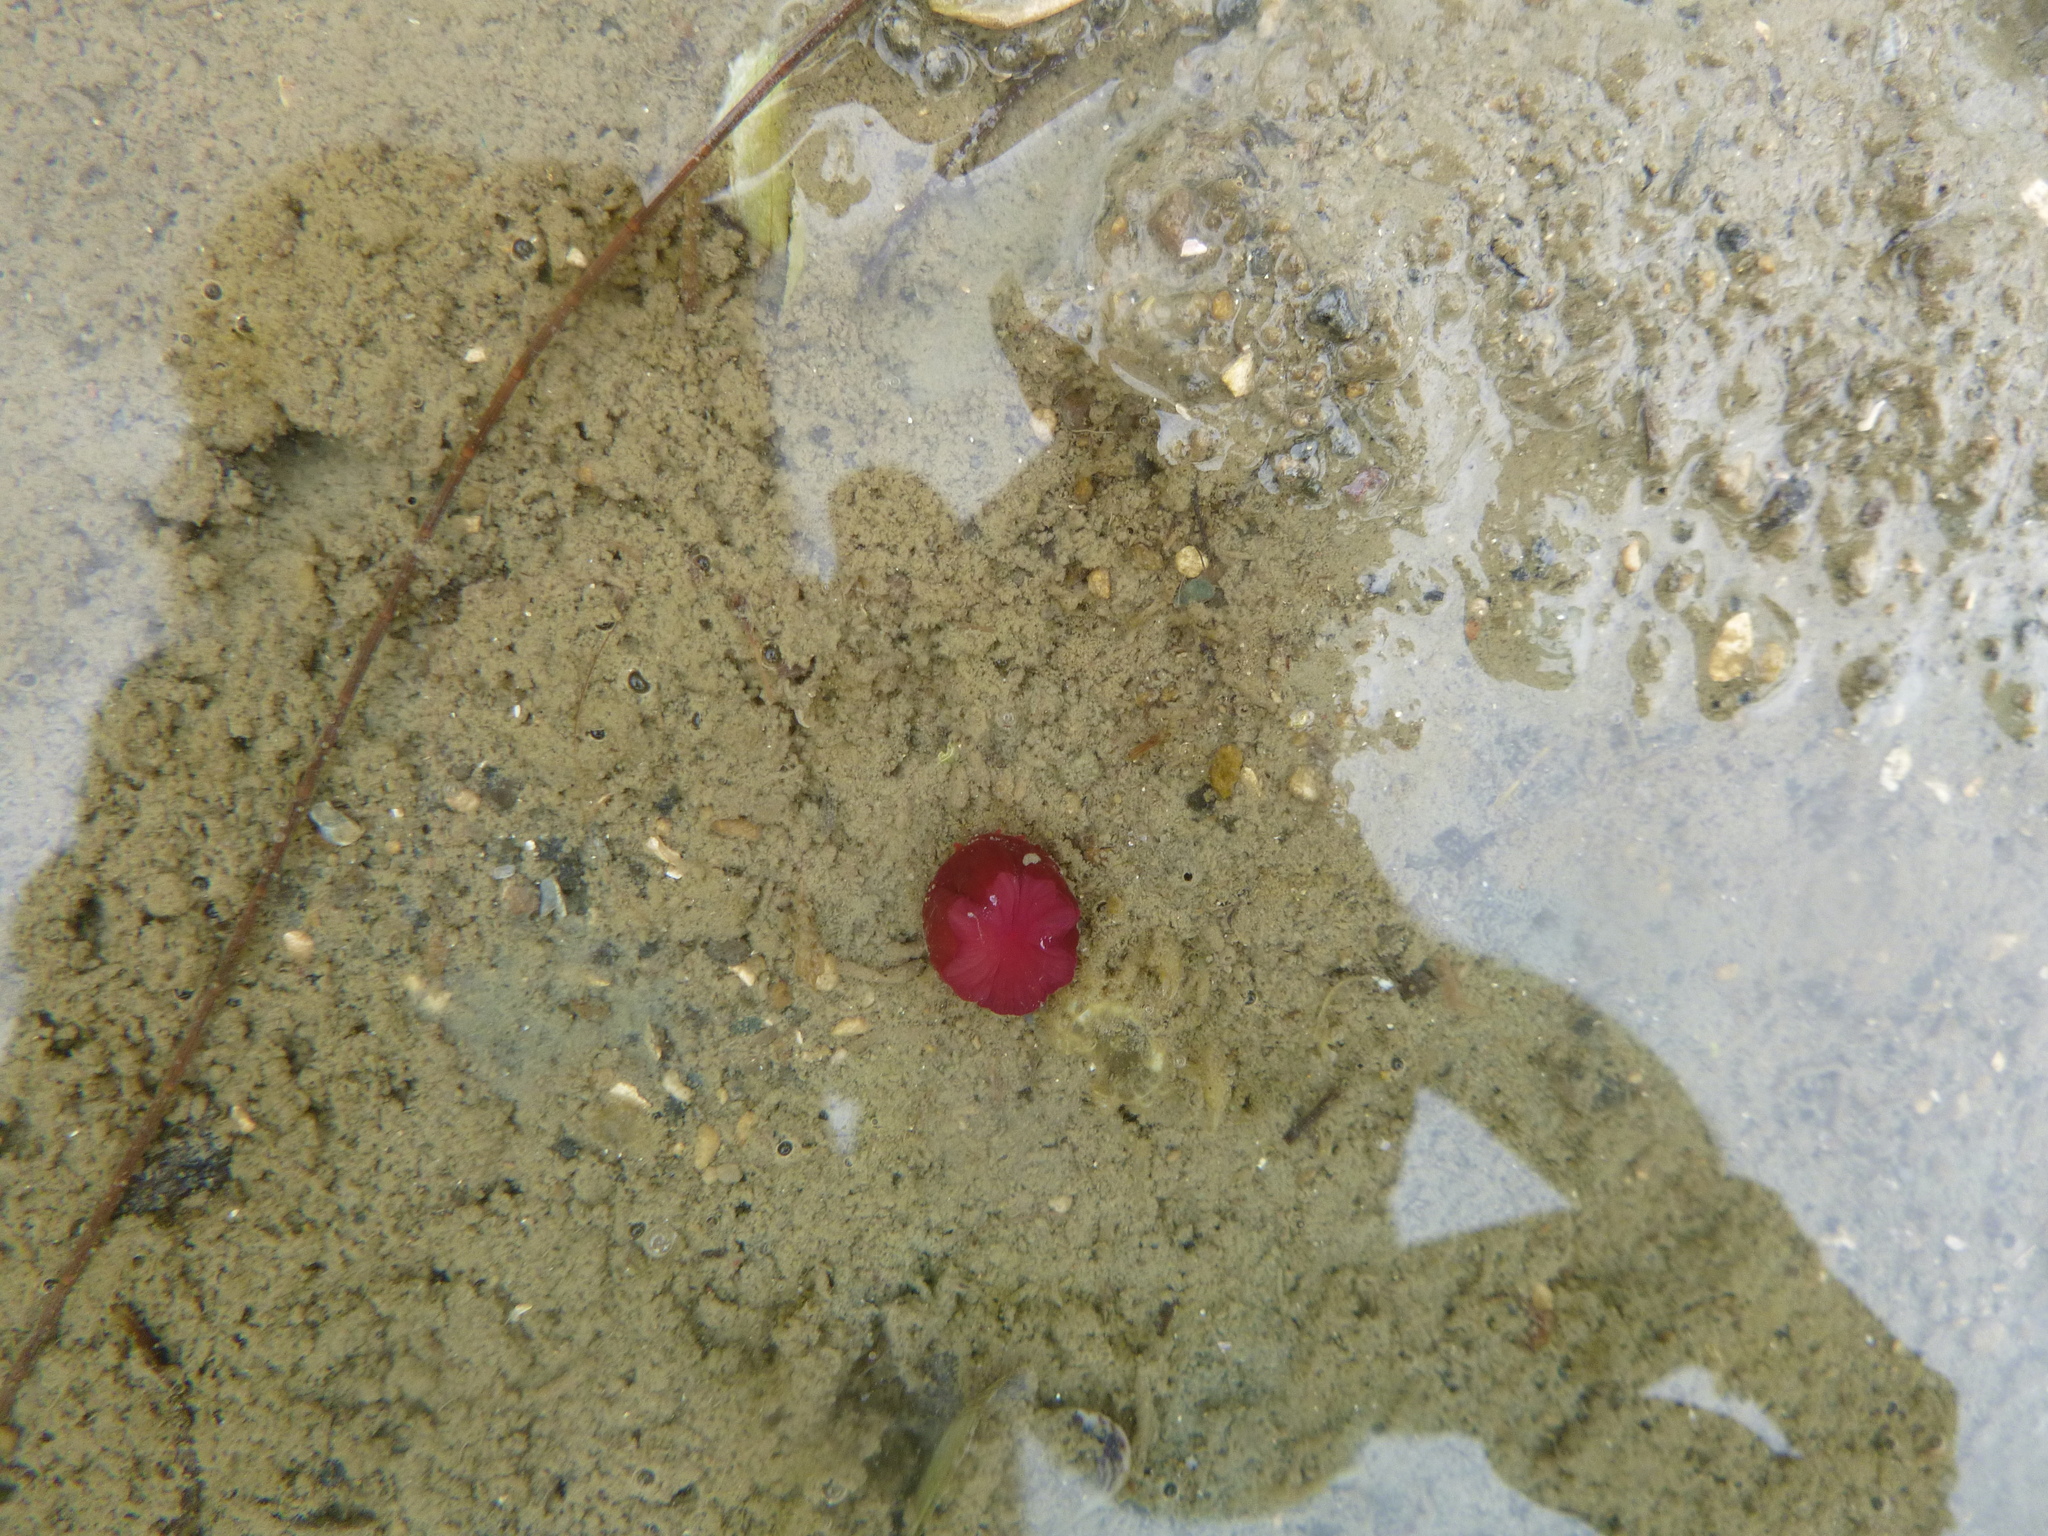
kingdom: Animalia
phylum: Cnidaria
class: Anthozoa
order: Actiniaria
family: Actiniidae
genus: Actinia
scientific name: Actinia tenebrosa
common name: Waratah anemone
